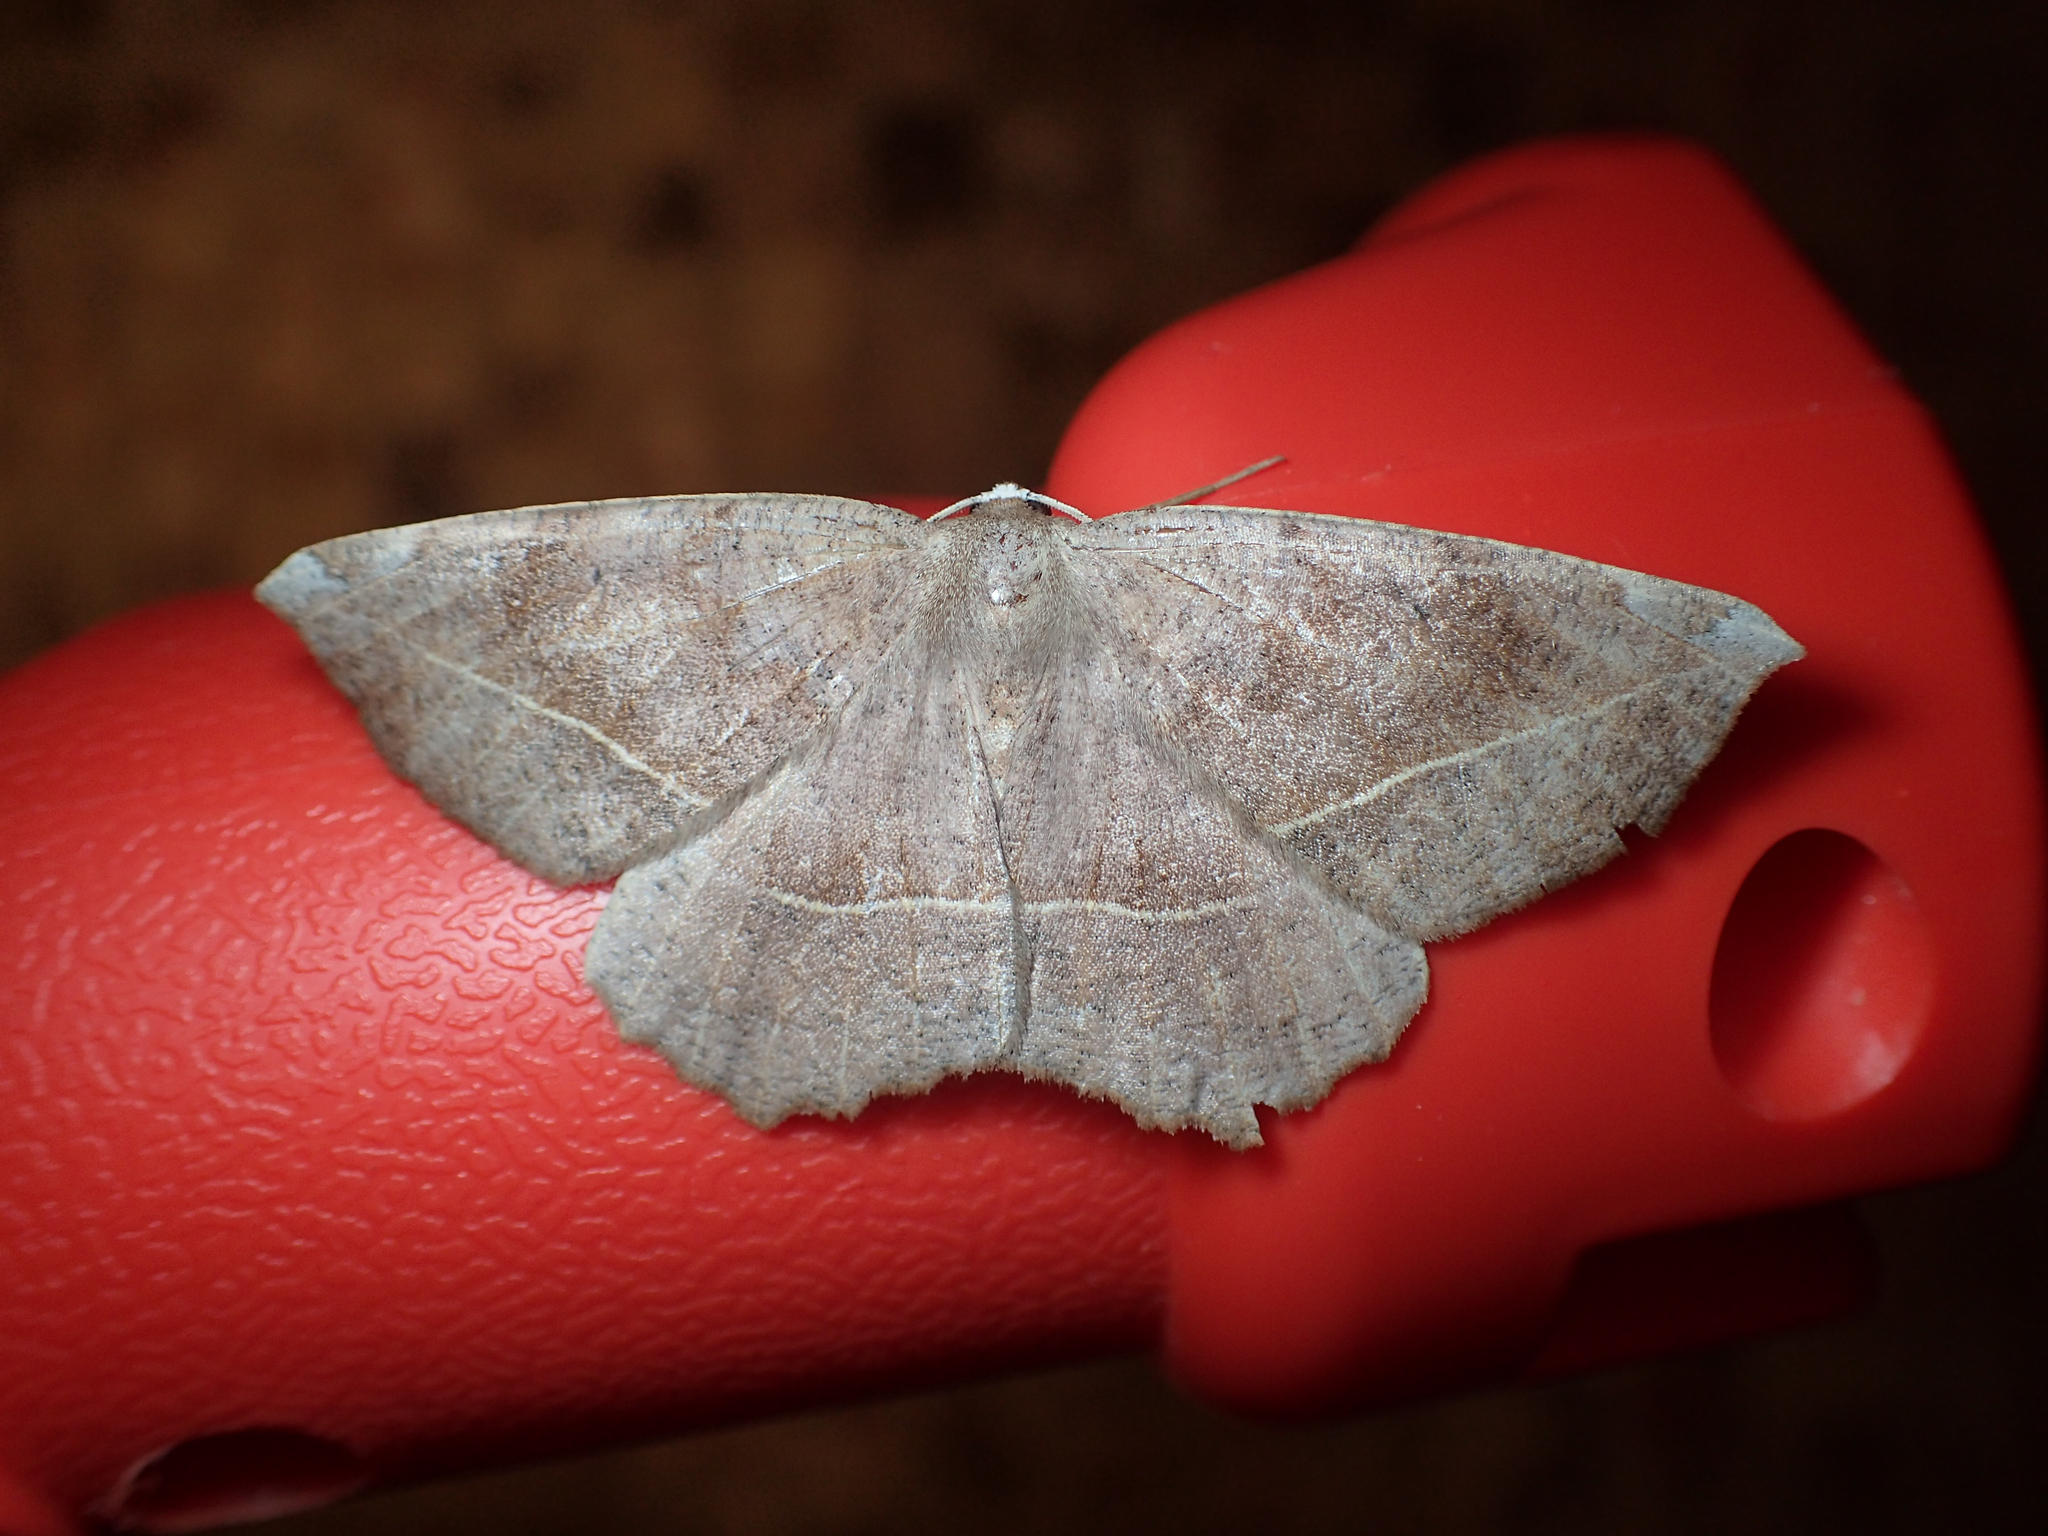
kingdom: Animalia
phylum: Arthropoda
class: Insecta
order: Lepidoptera
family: Geometridae
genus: Eutrapela
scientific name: Eutrapela clemataria
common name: Curved-toothed geometer
